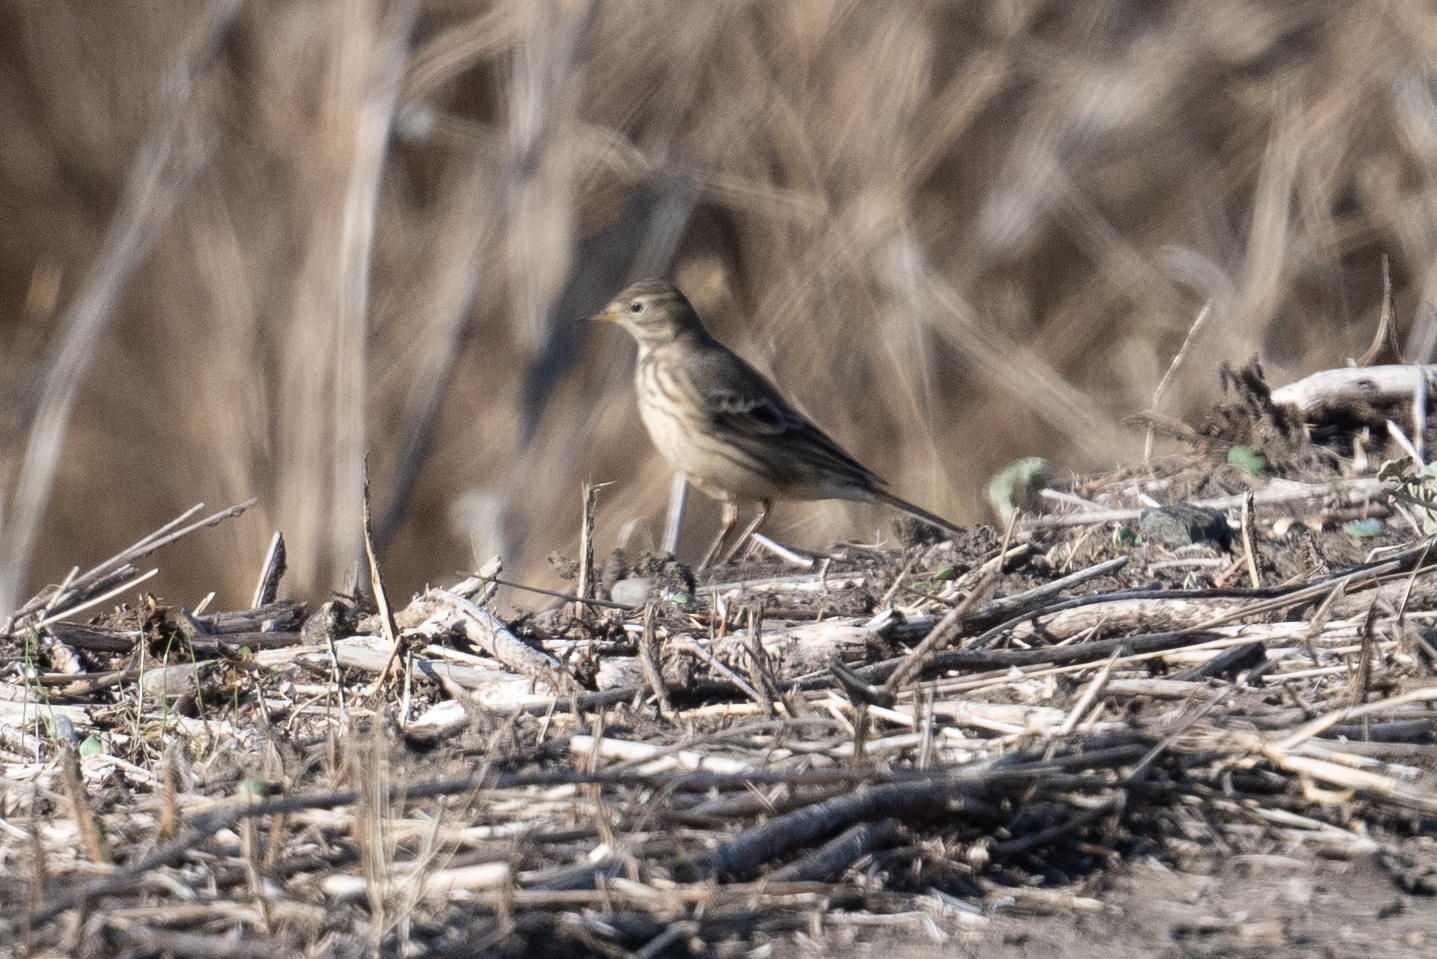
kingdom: Animalia
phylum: Chordata
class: Aves
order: Passeriformes
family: Motacillidae
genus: Anthus
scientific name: Anthus rubescens
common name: Buff-bellied pipit
